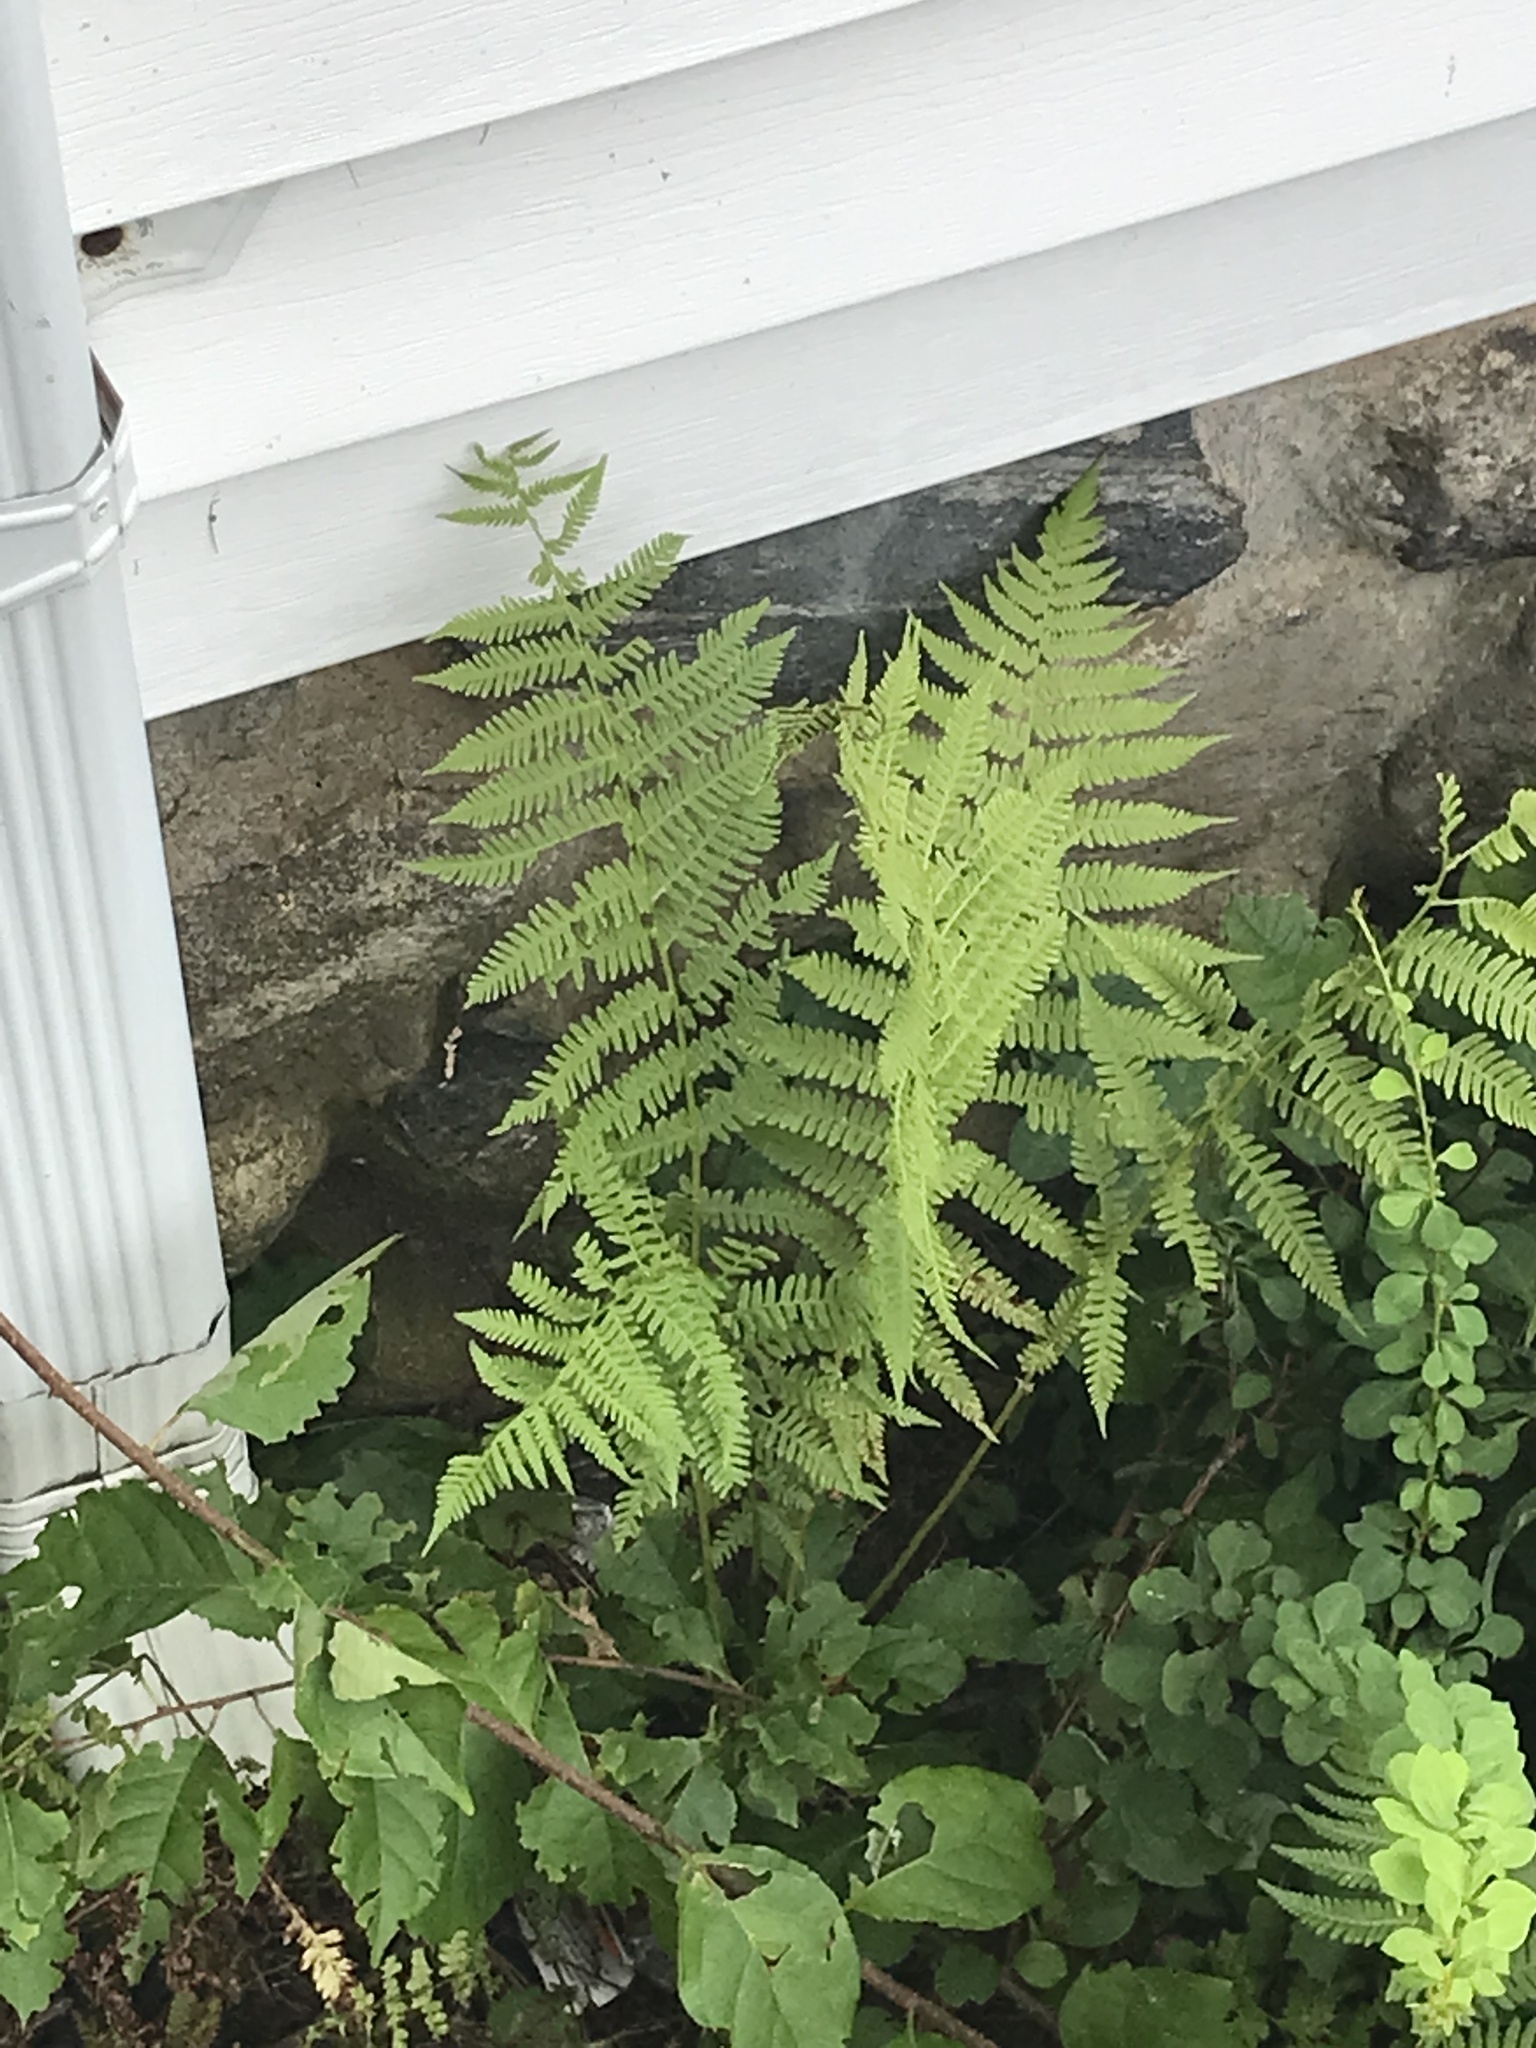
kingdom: Plantae
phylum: Tracheophyta
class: Polypodiopsida
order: Polypodiales
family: Athyriaceae
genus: Athyrium
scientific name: Athyrium angustum
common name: Northern lady fern
